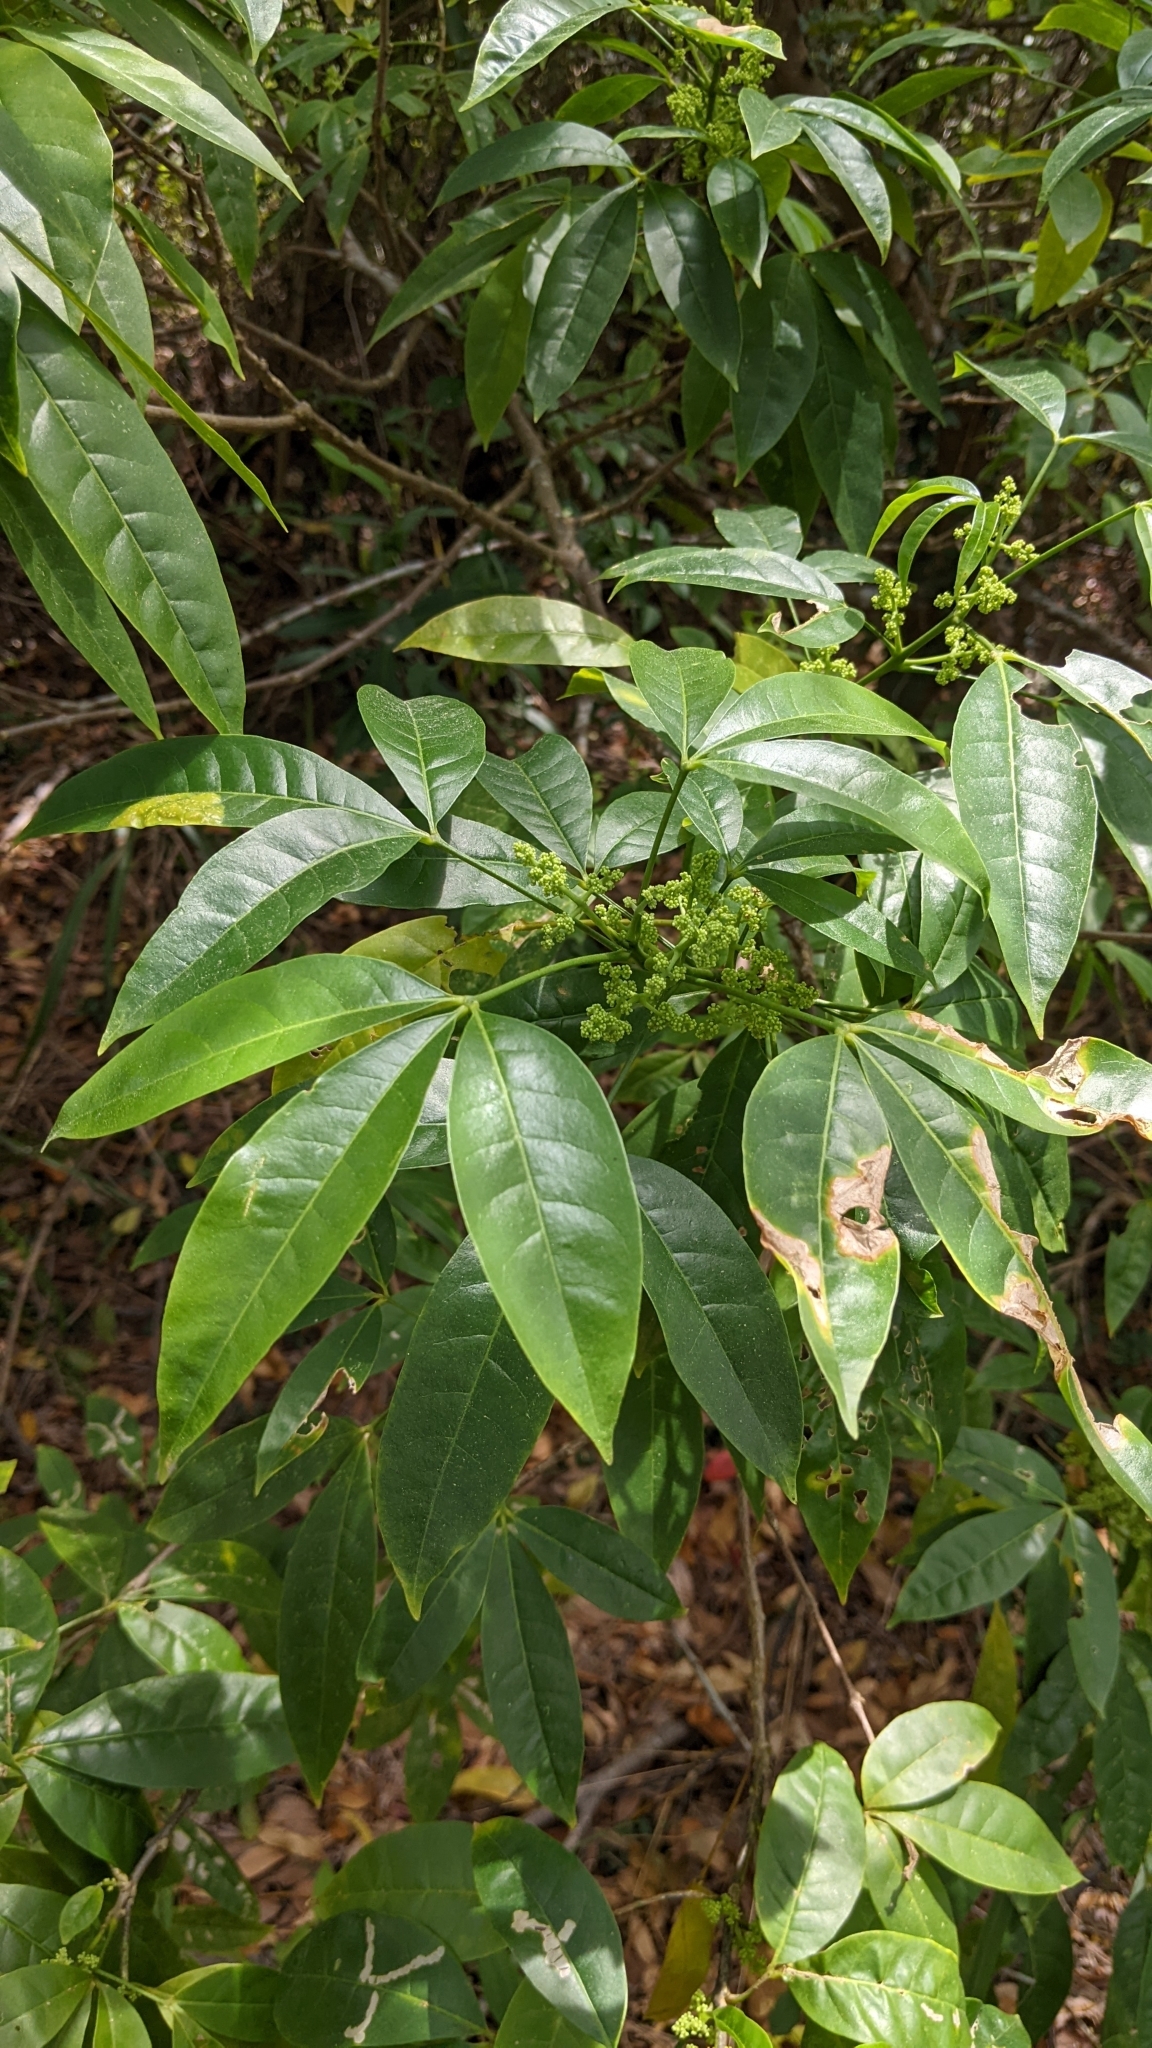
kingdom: Plantae
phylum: Tracheophyta
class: Magnoliopsida
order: Sapindales
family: Rutaceae
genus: Melicope
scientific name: Melicope pteleifolia
